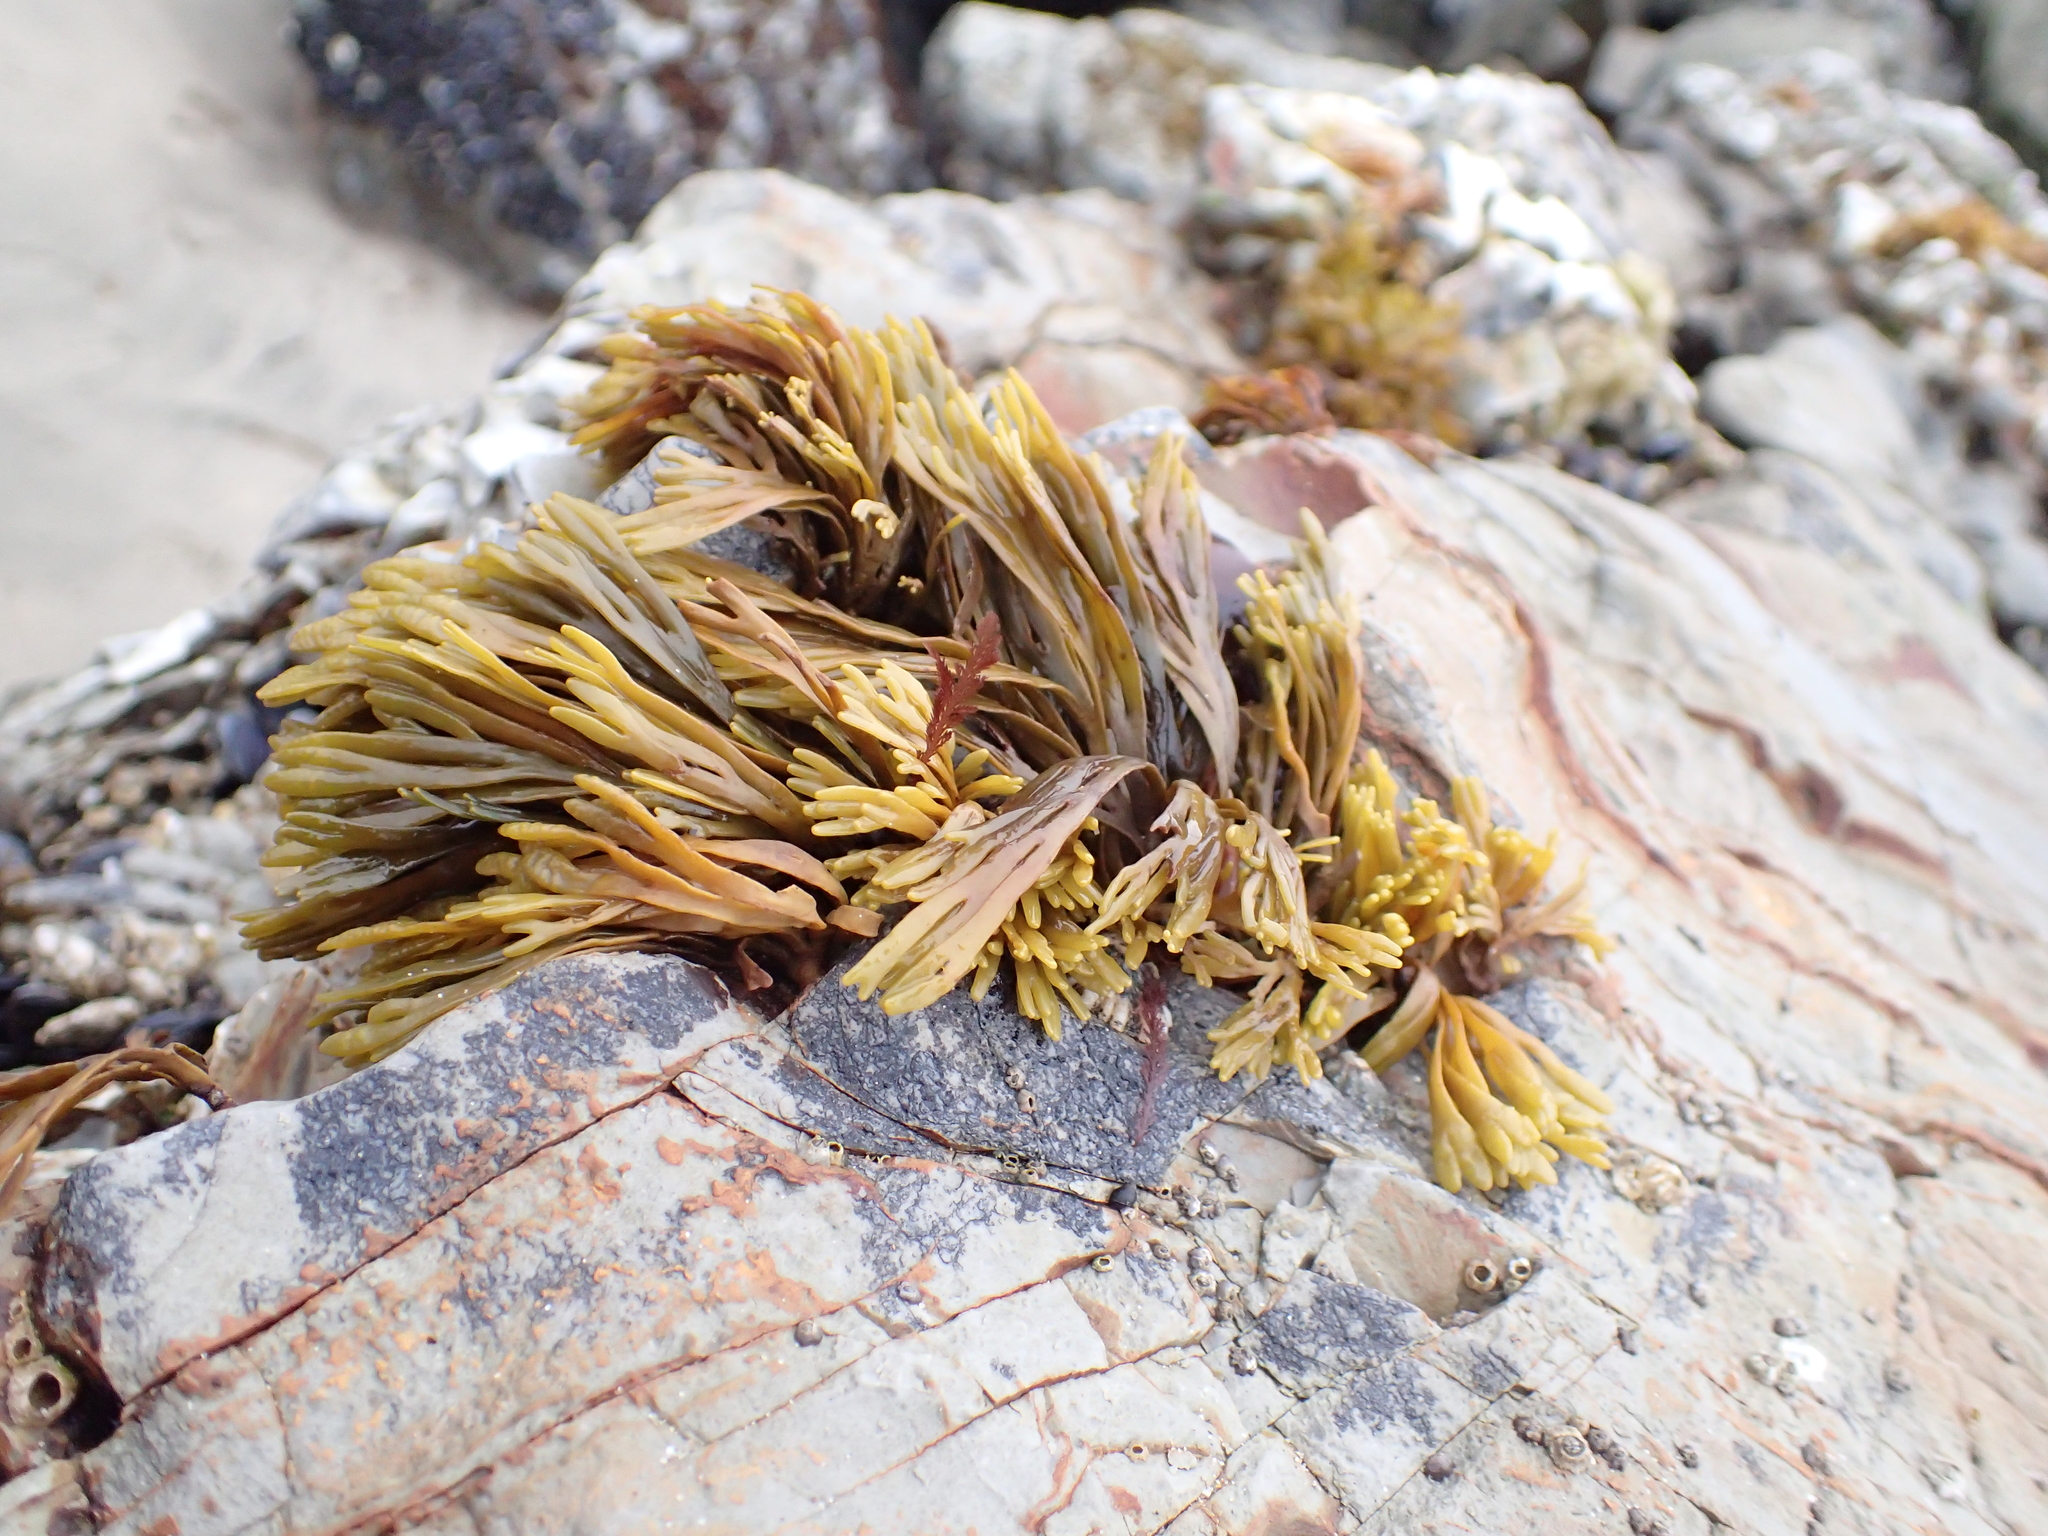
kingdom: Chromista
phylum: Ochrophyta
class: Phaeophyceae
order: Fucales
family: Fucaceae
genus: Pelvetiopsis
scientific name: Pelvetiopsis limitata
